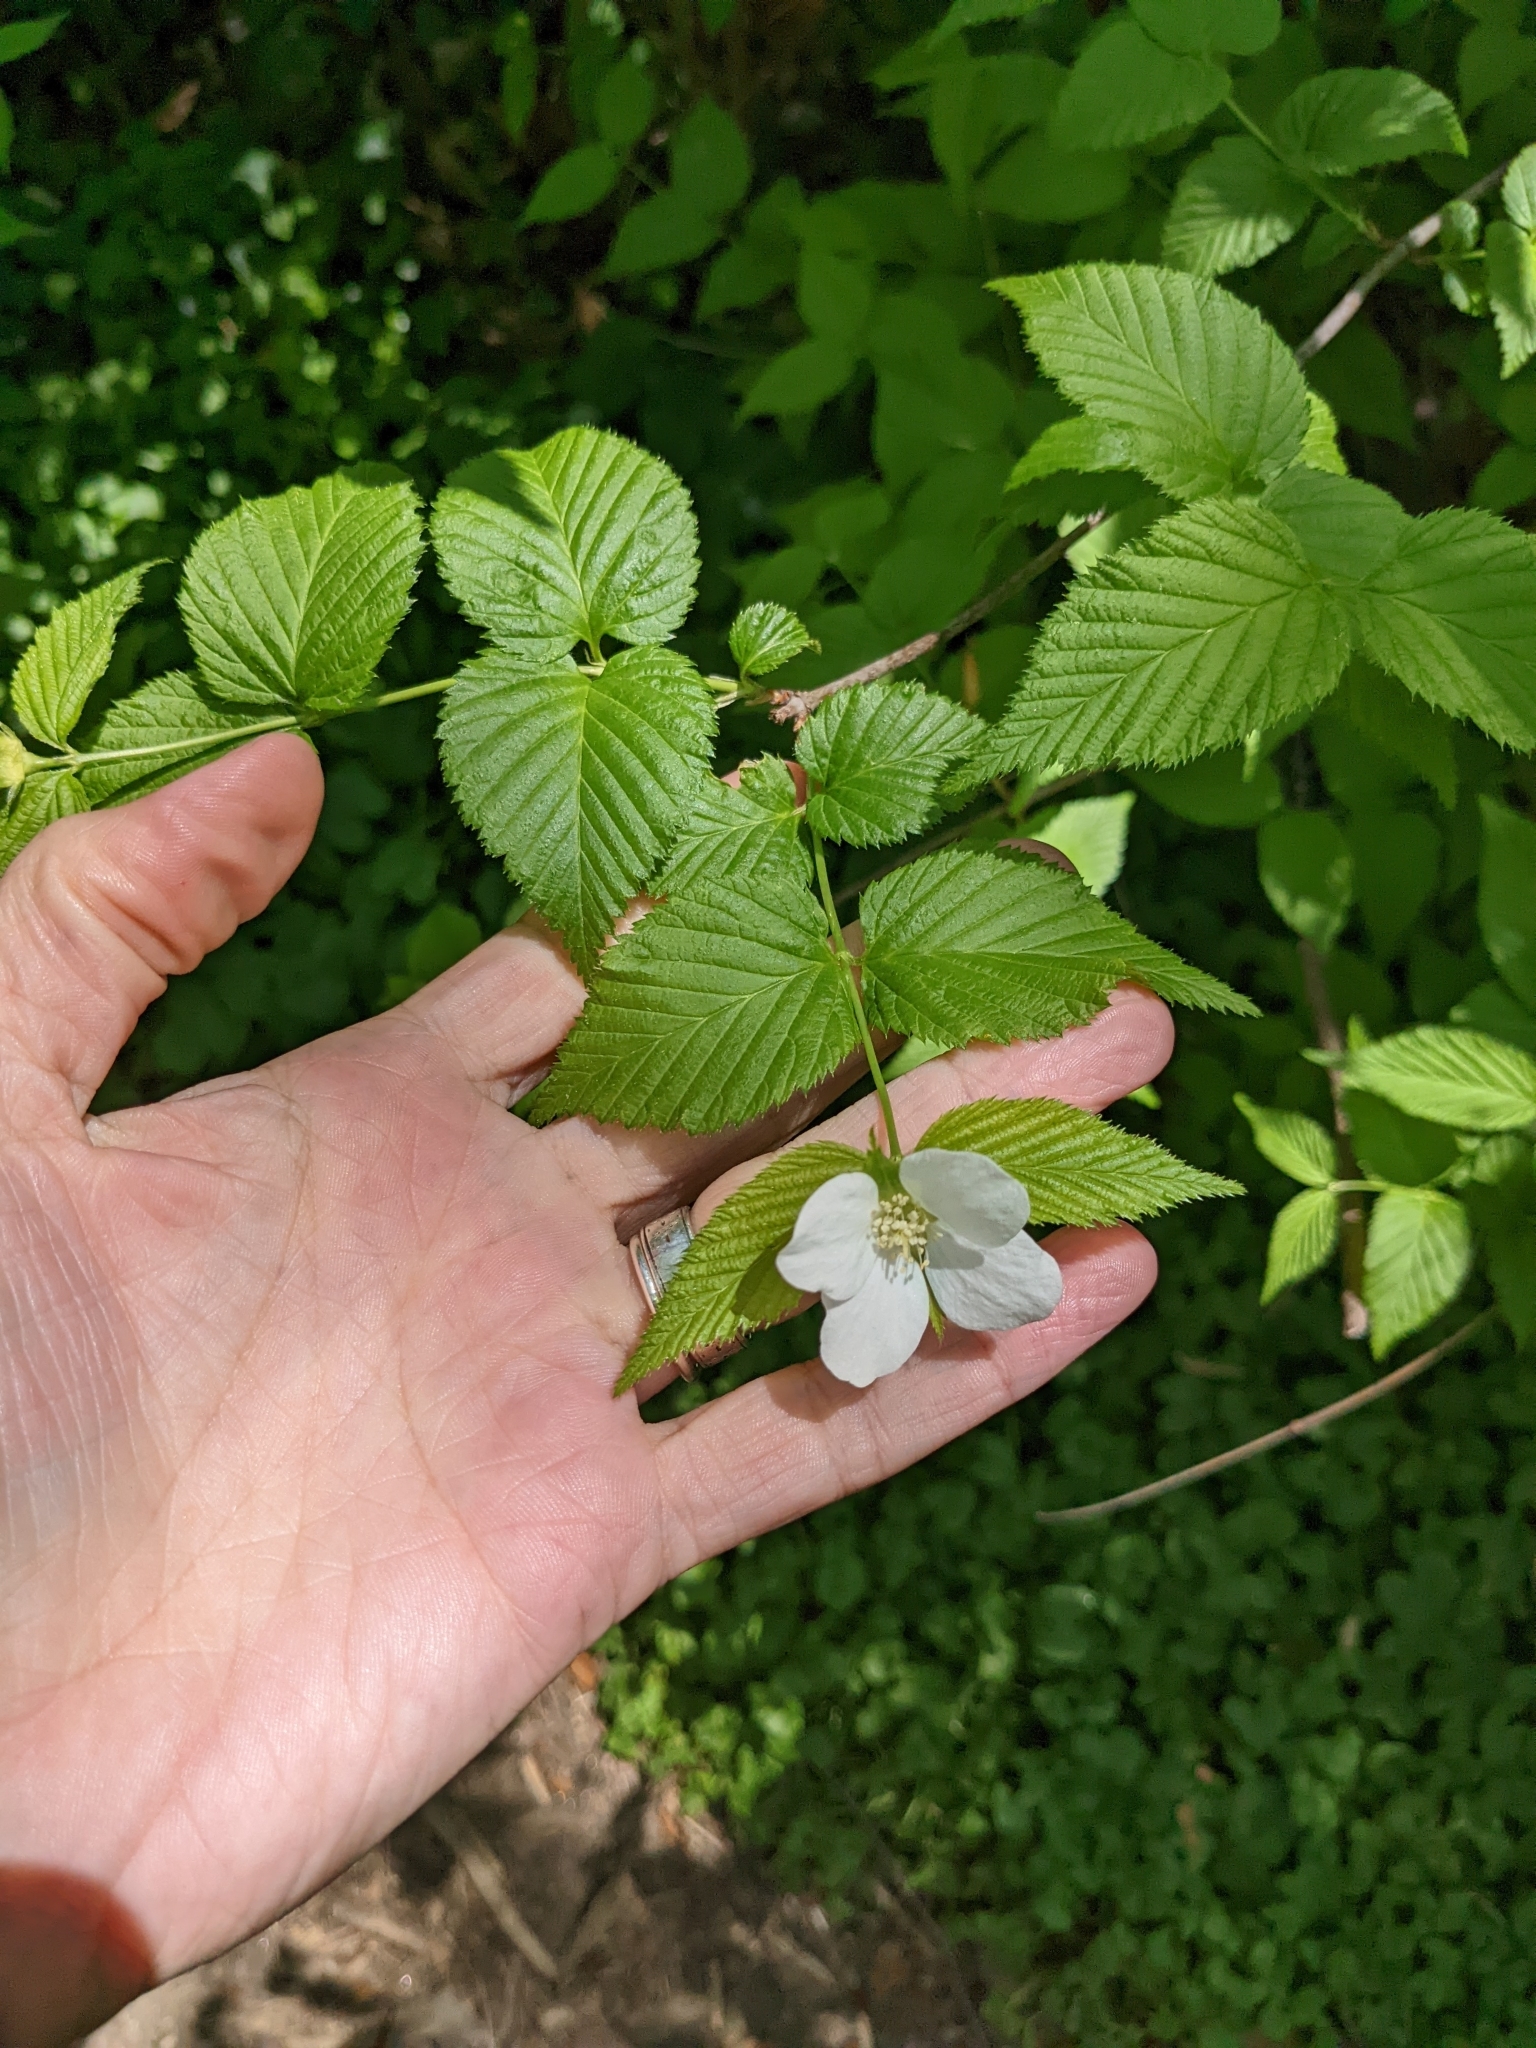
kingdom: Plantae
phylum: Tracheophyta
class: Magnoliopsida
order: Rosales
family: Rosaceae
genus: Rhodotypos
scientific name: Rhodotypos scandens
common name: Jetbead
